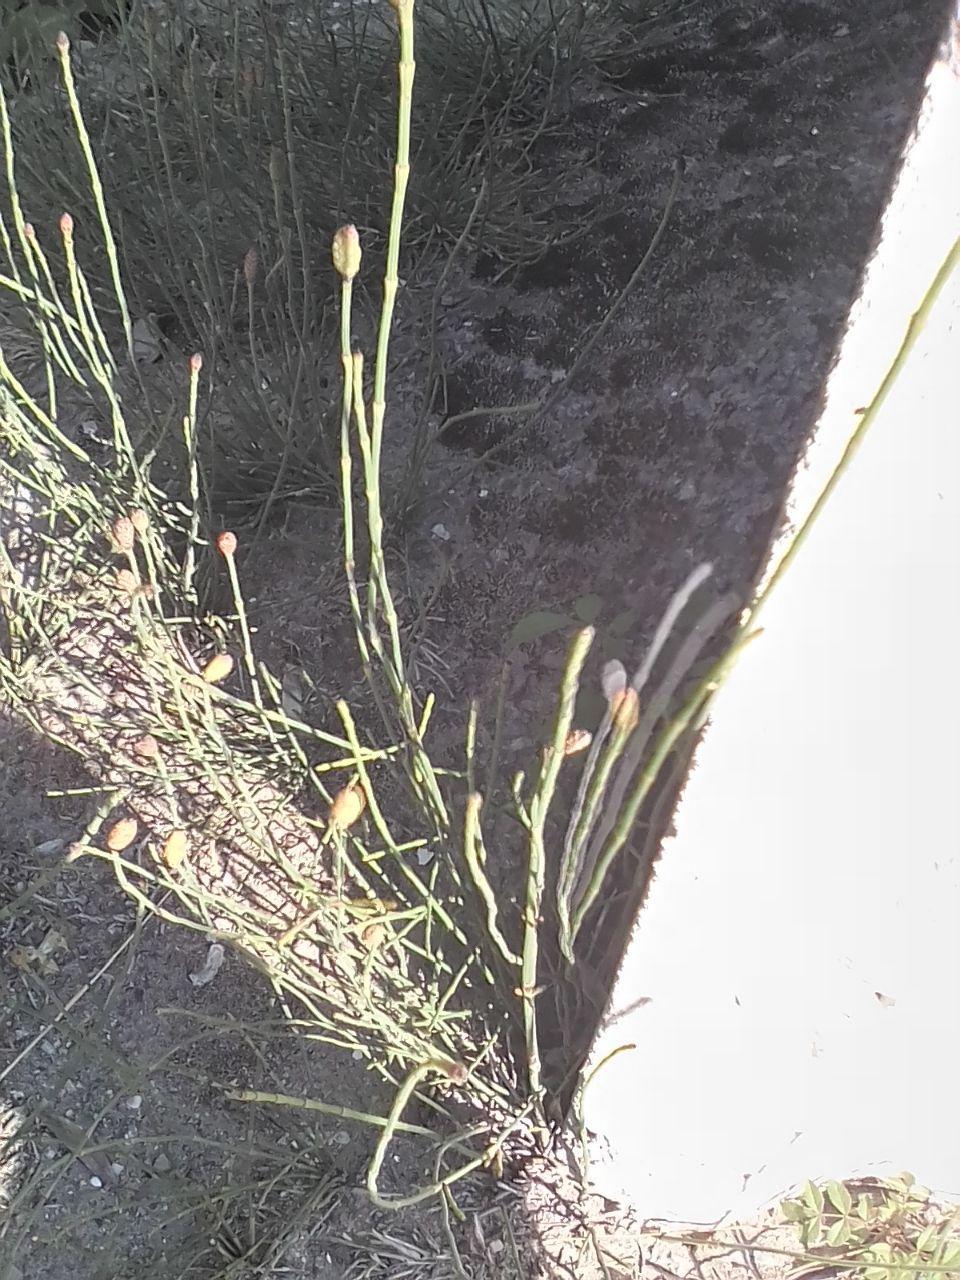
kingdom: Plantae
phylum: Tracheophyta
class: Polypodiopsida
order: Equisetales
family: Equisetaceae
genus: Equisetum
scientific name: Equisetum ramosissimum
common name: Branched horsetail
